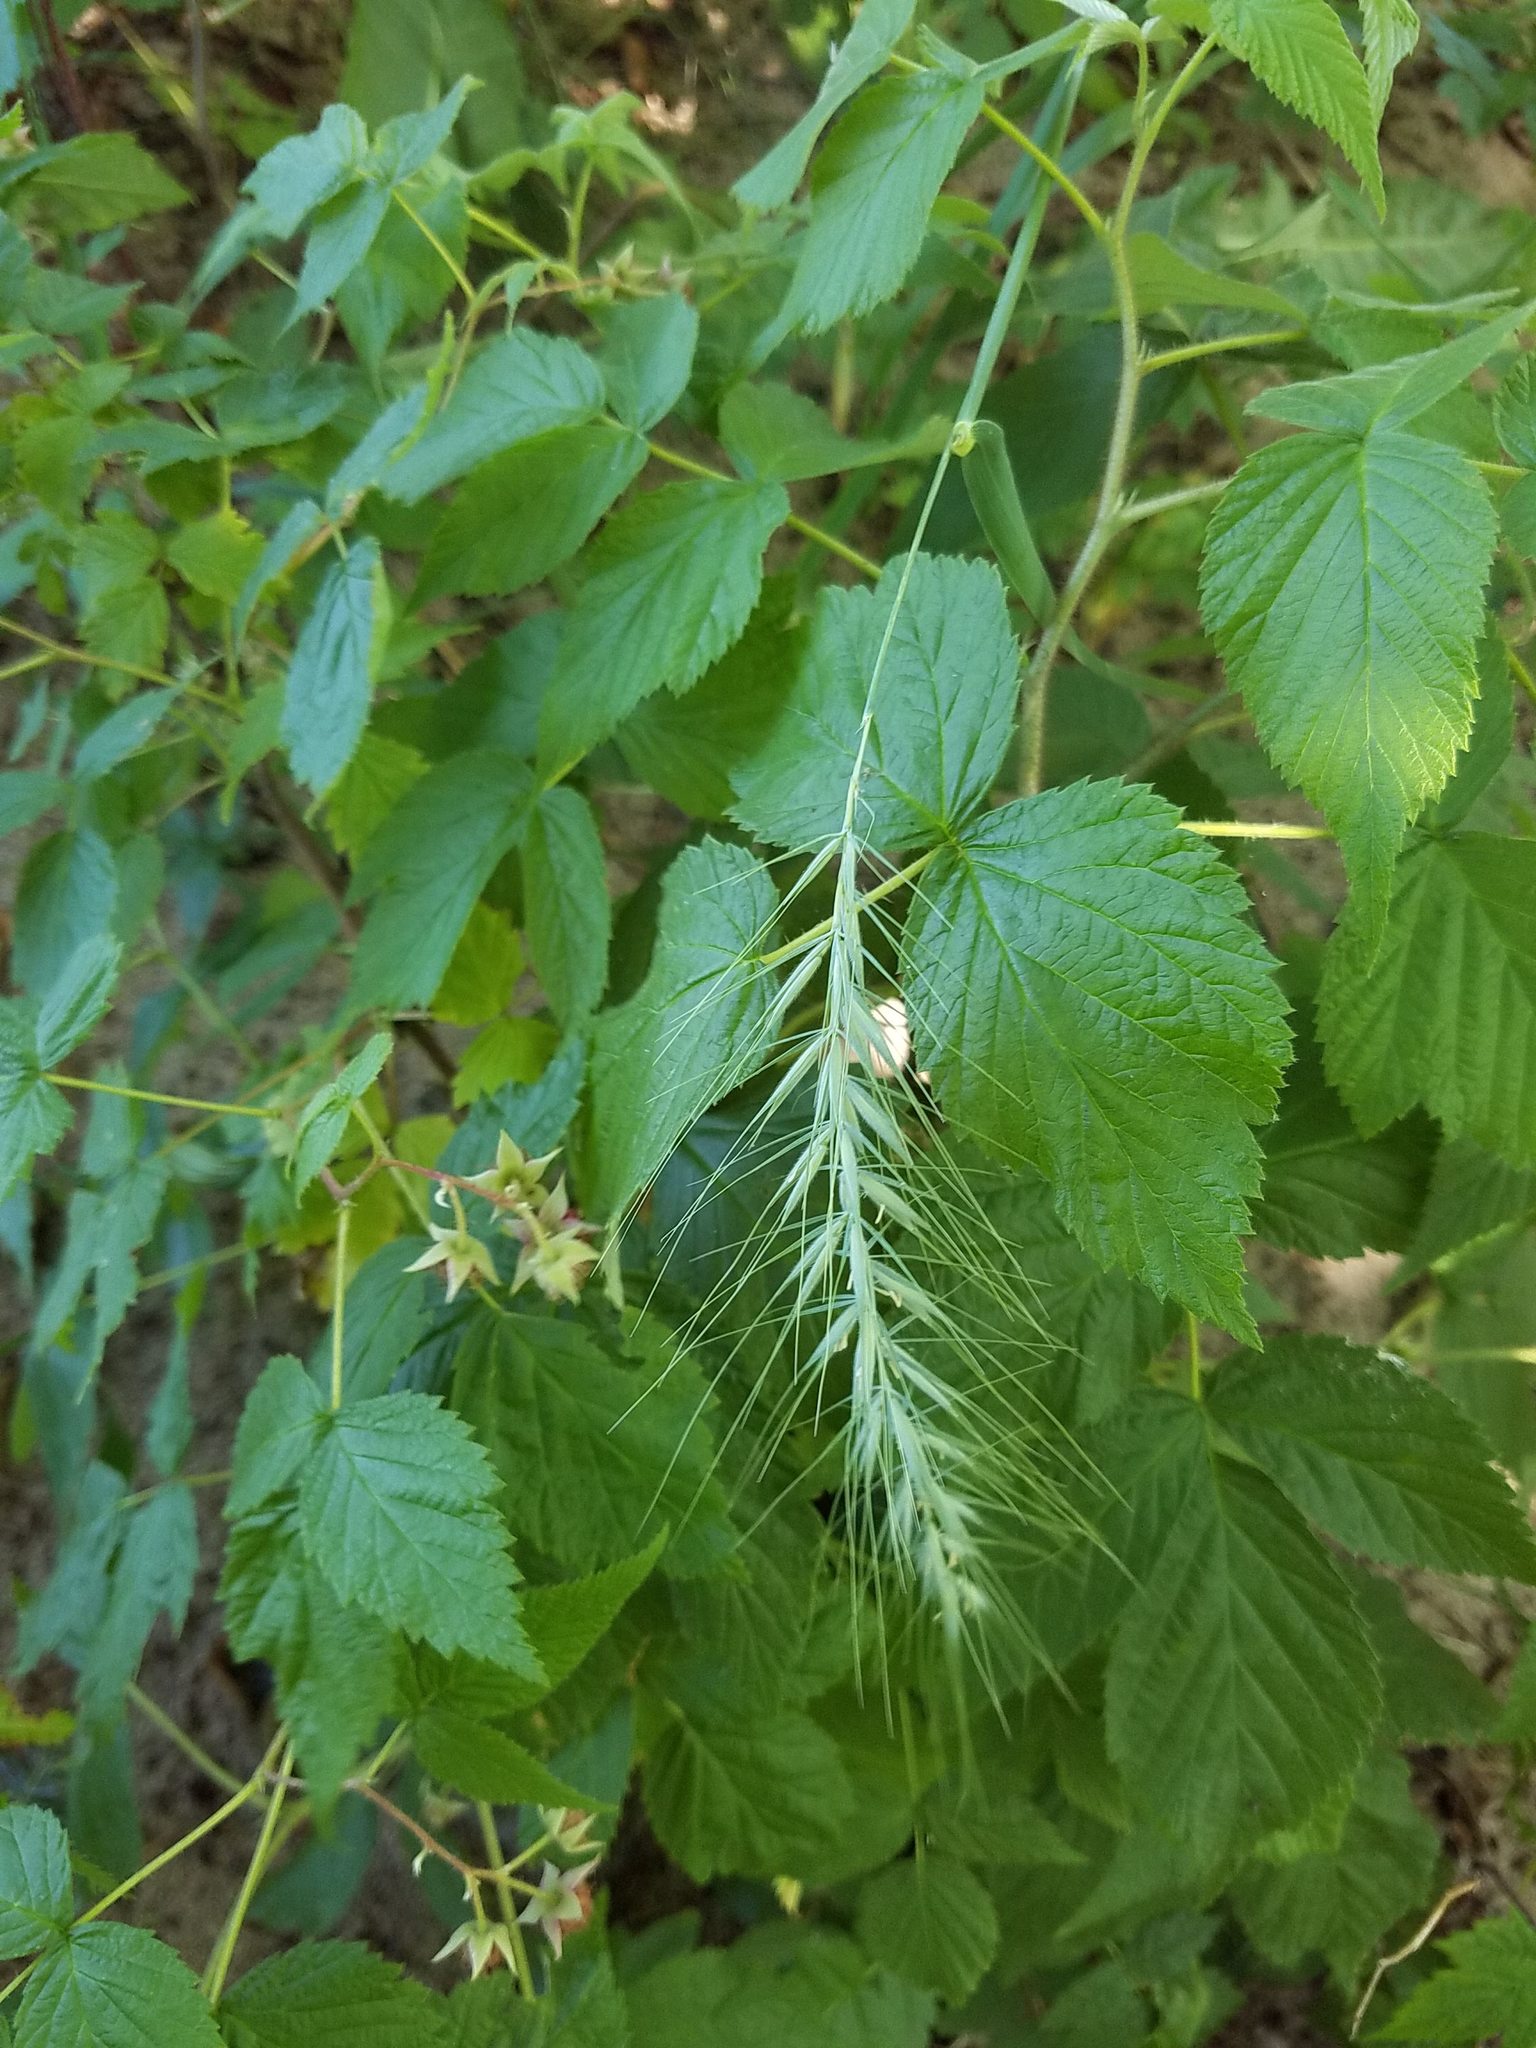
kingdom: Plantae
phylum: Tracheophyta
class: Liliopsida
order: Poales
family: Poaceae
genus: Elymus
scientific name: Elymus canadensis
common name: Canada wild rye
